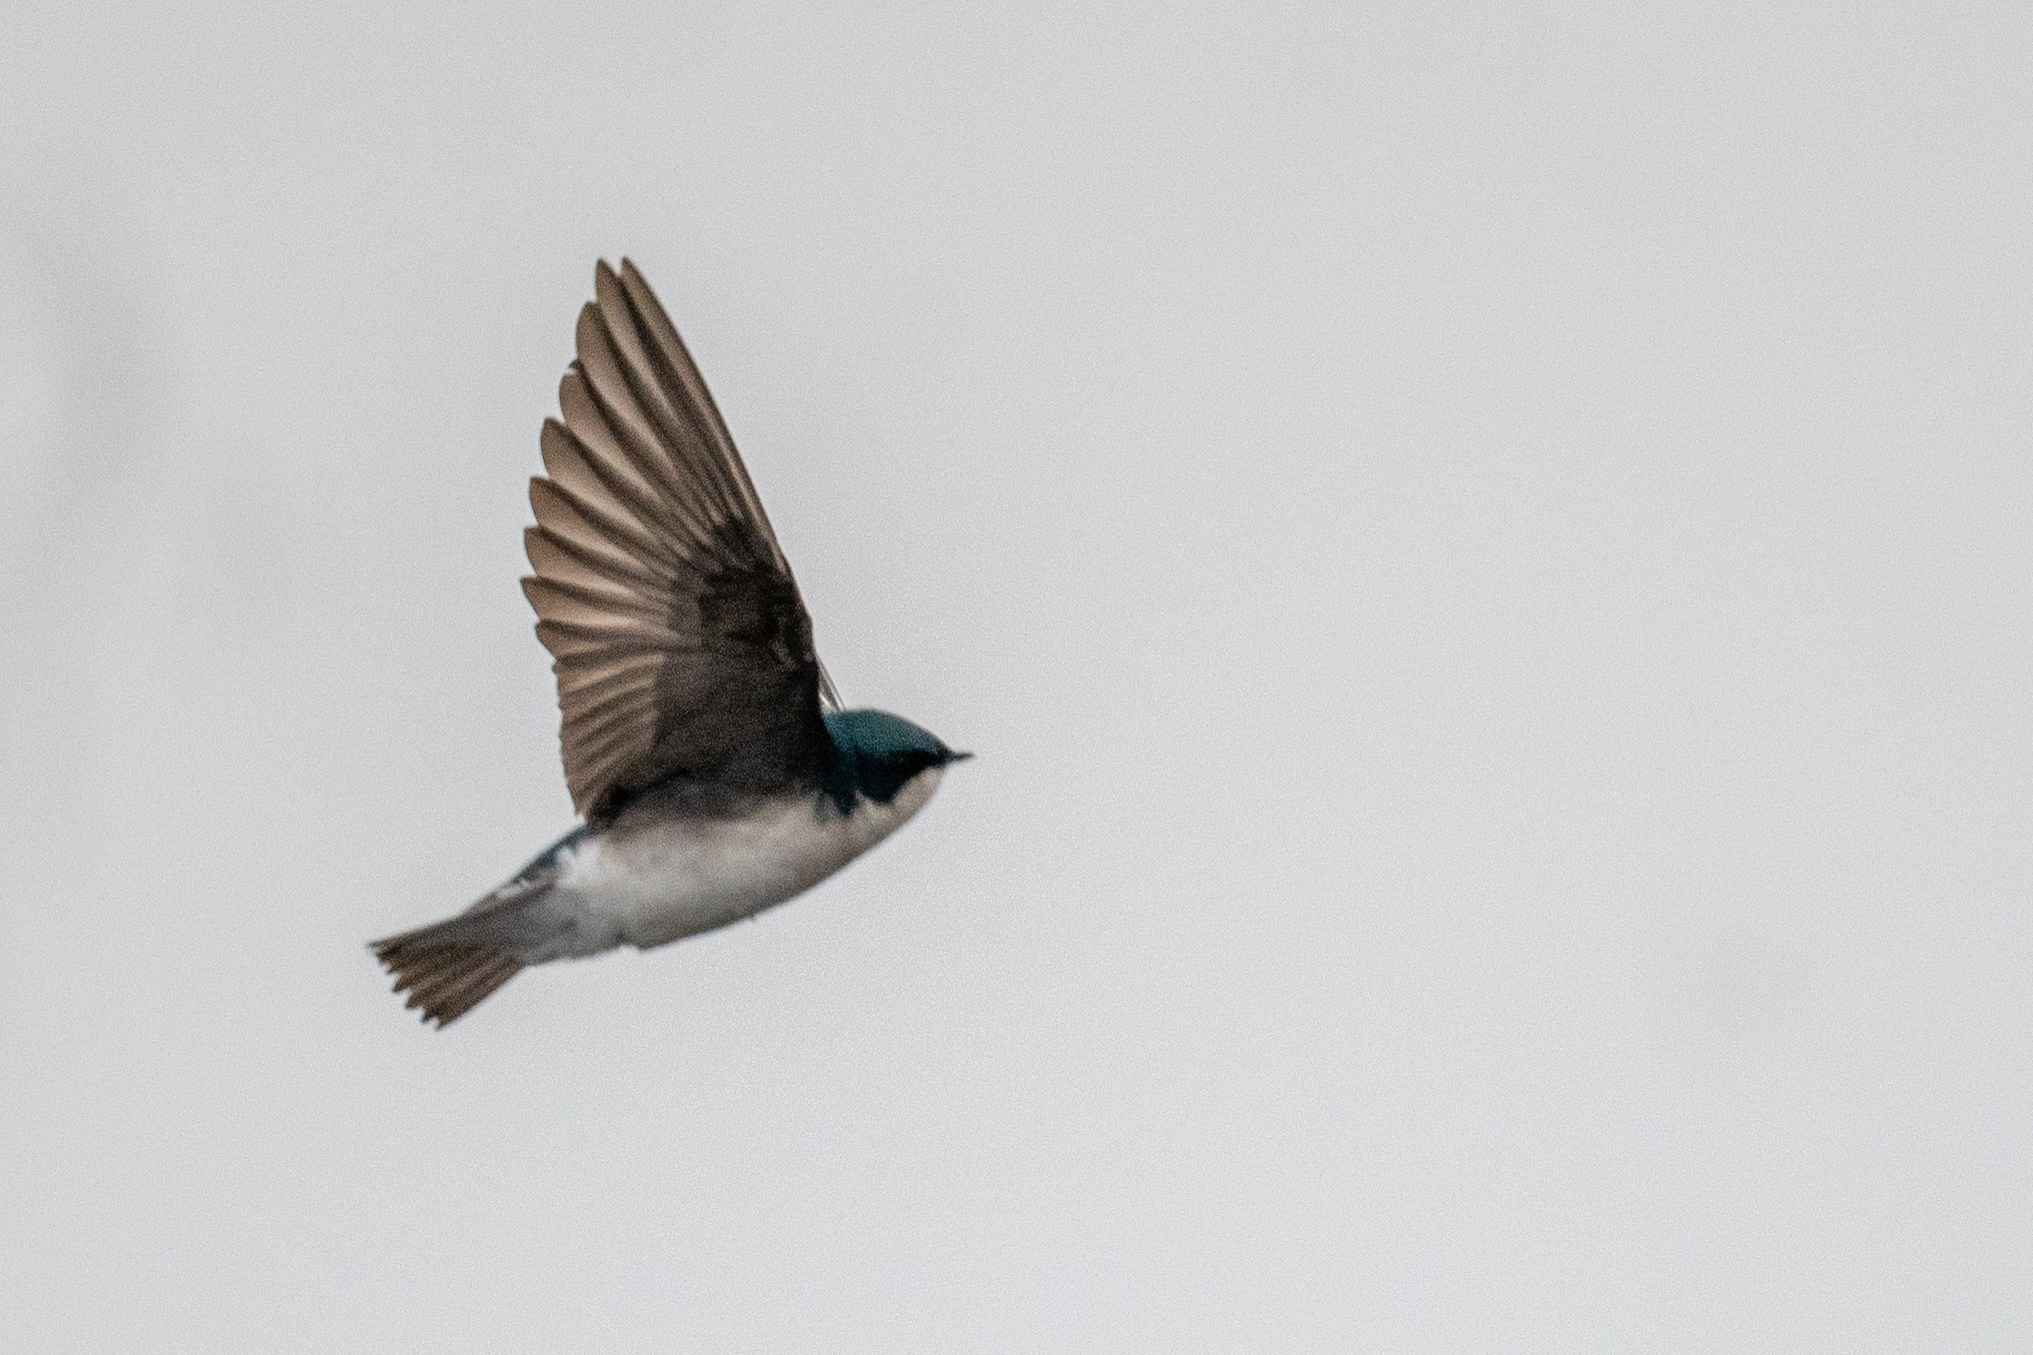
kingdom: Animalia
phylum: Chordata
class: Aves
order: Passeriformes
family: Hirundinidae
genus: Tachycineta
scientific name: Tachycineta bicolor
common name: Tree swallow
